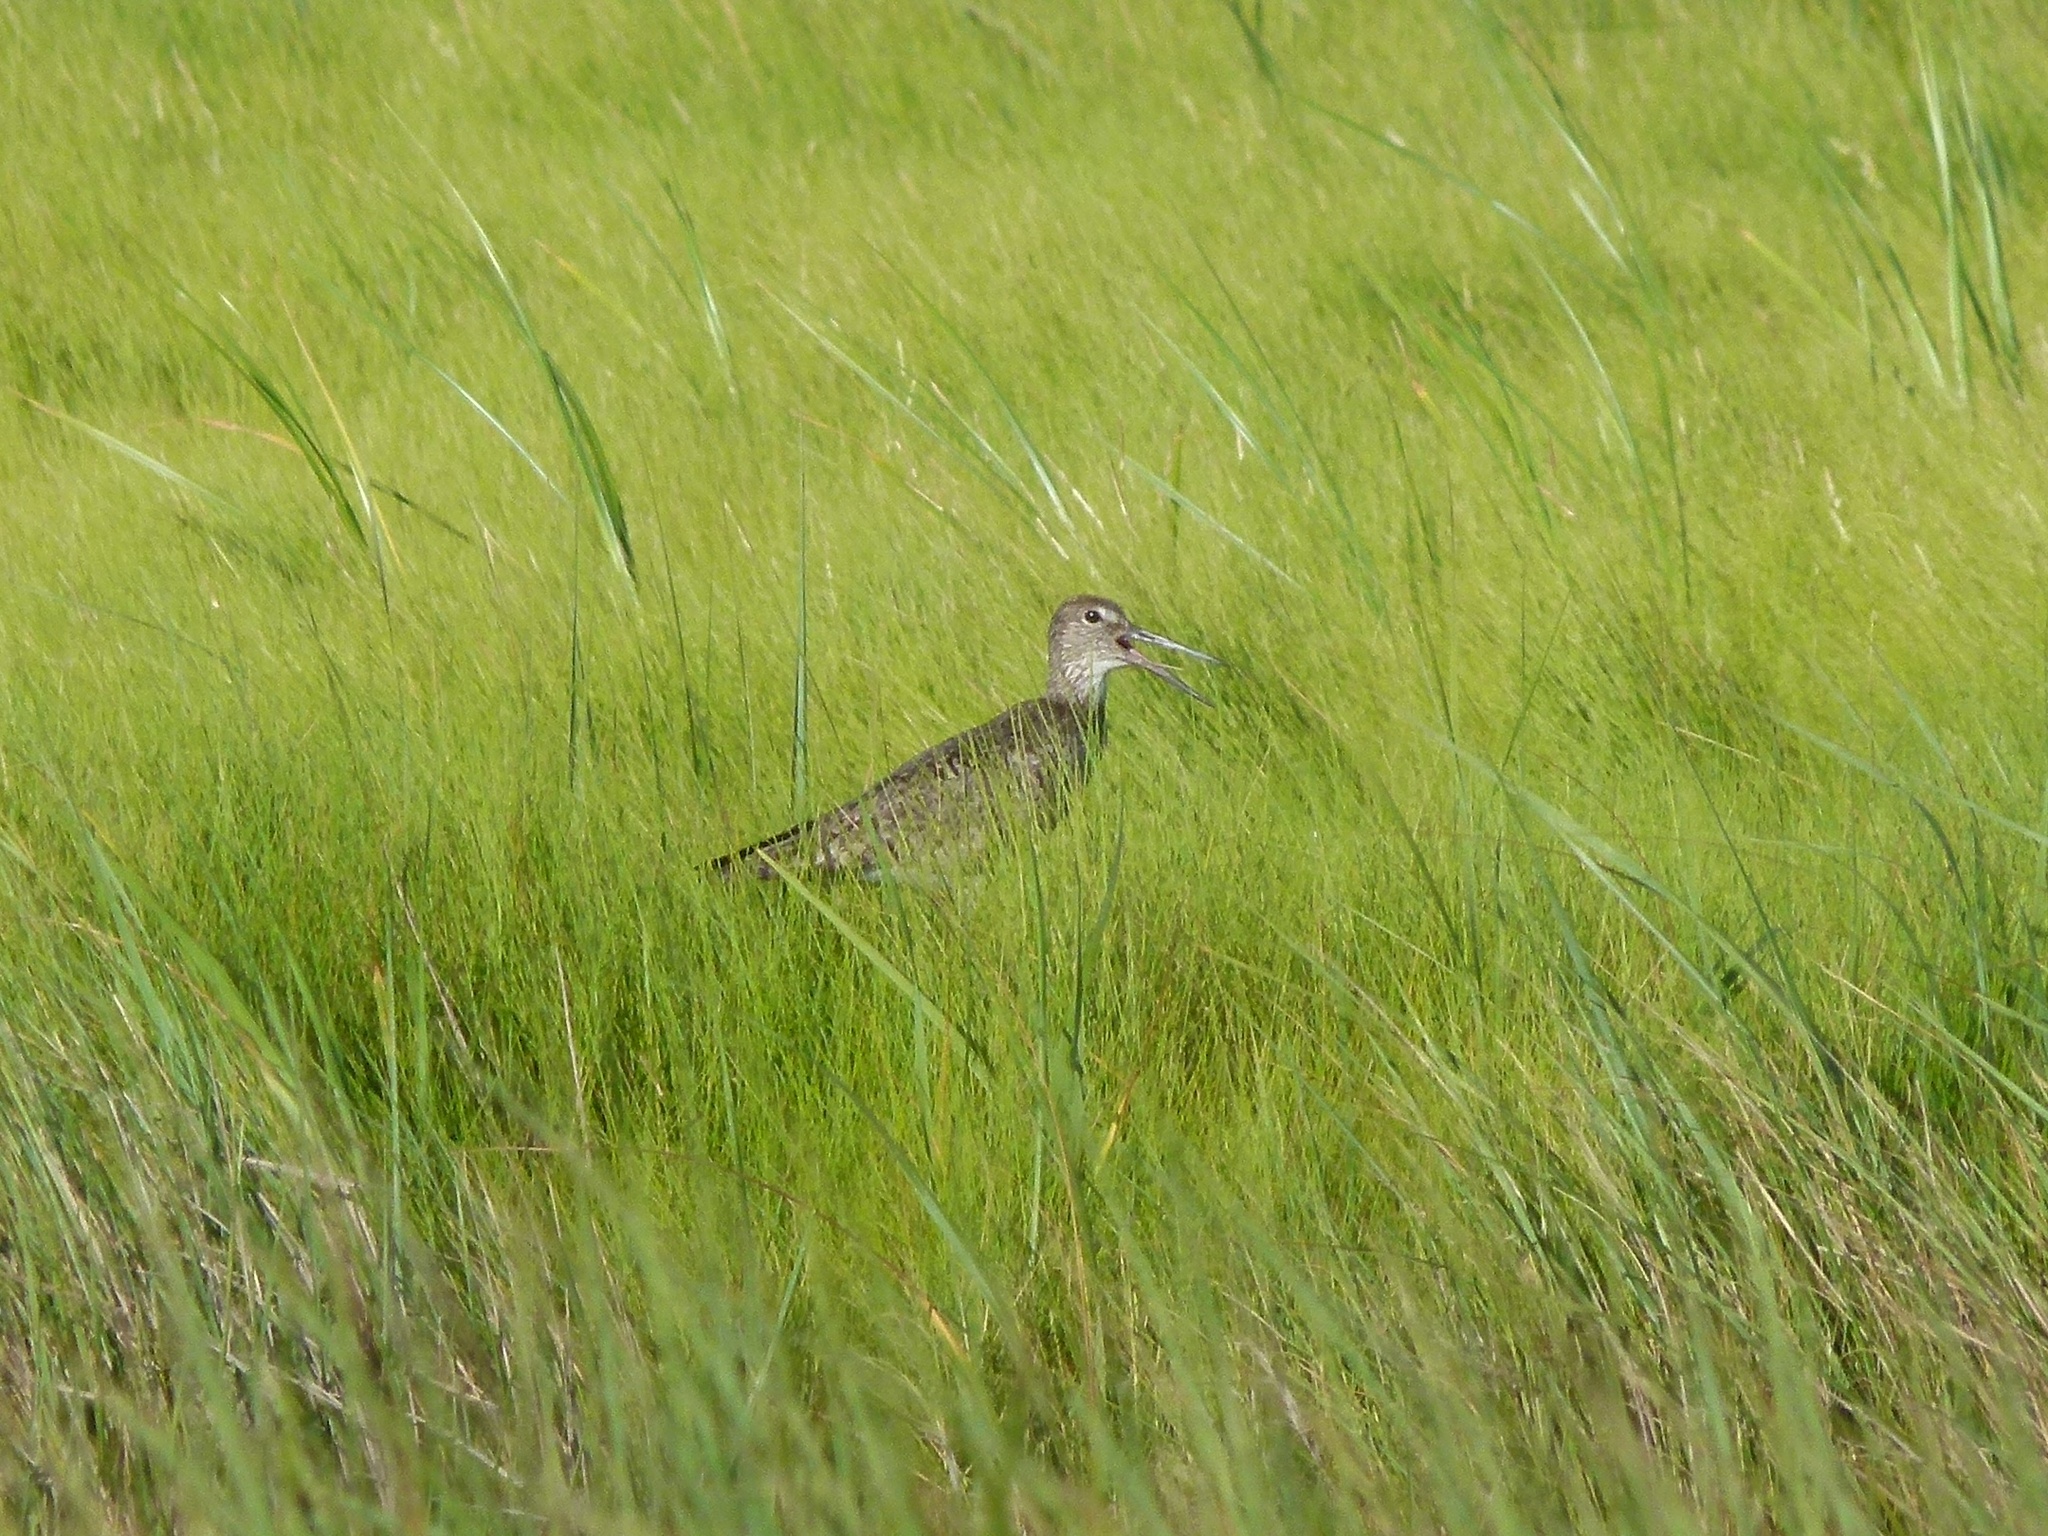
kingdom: Animalia
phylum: Chordata
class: Aves
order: Charadriiformes
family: Scolopacidae
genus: Tringa
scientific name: Tringa semipalmata
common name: Willet
